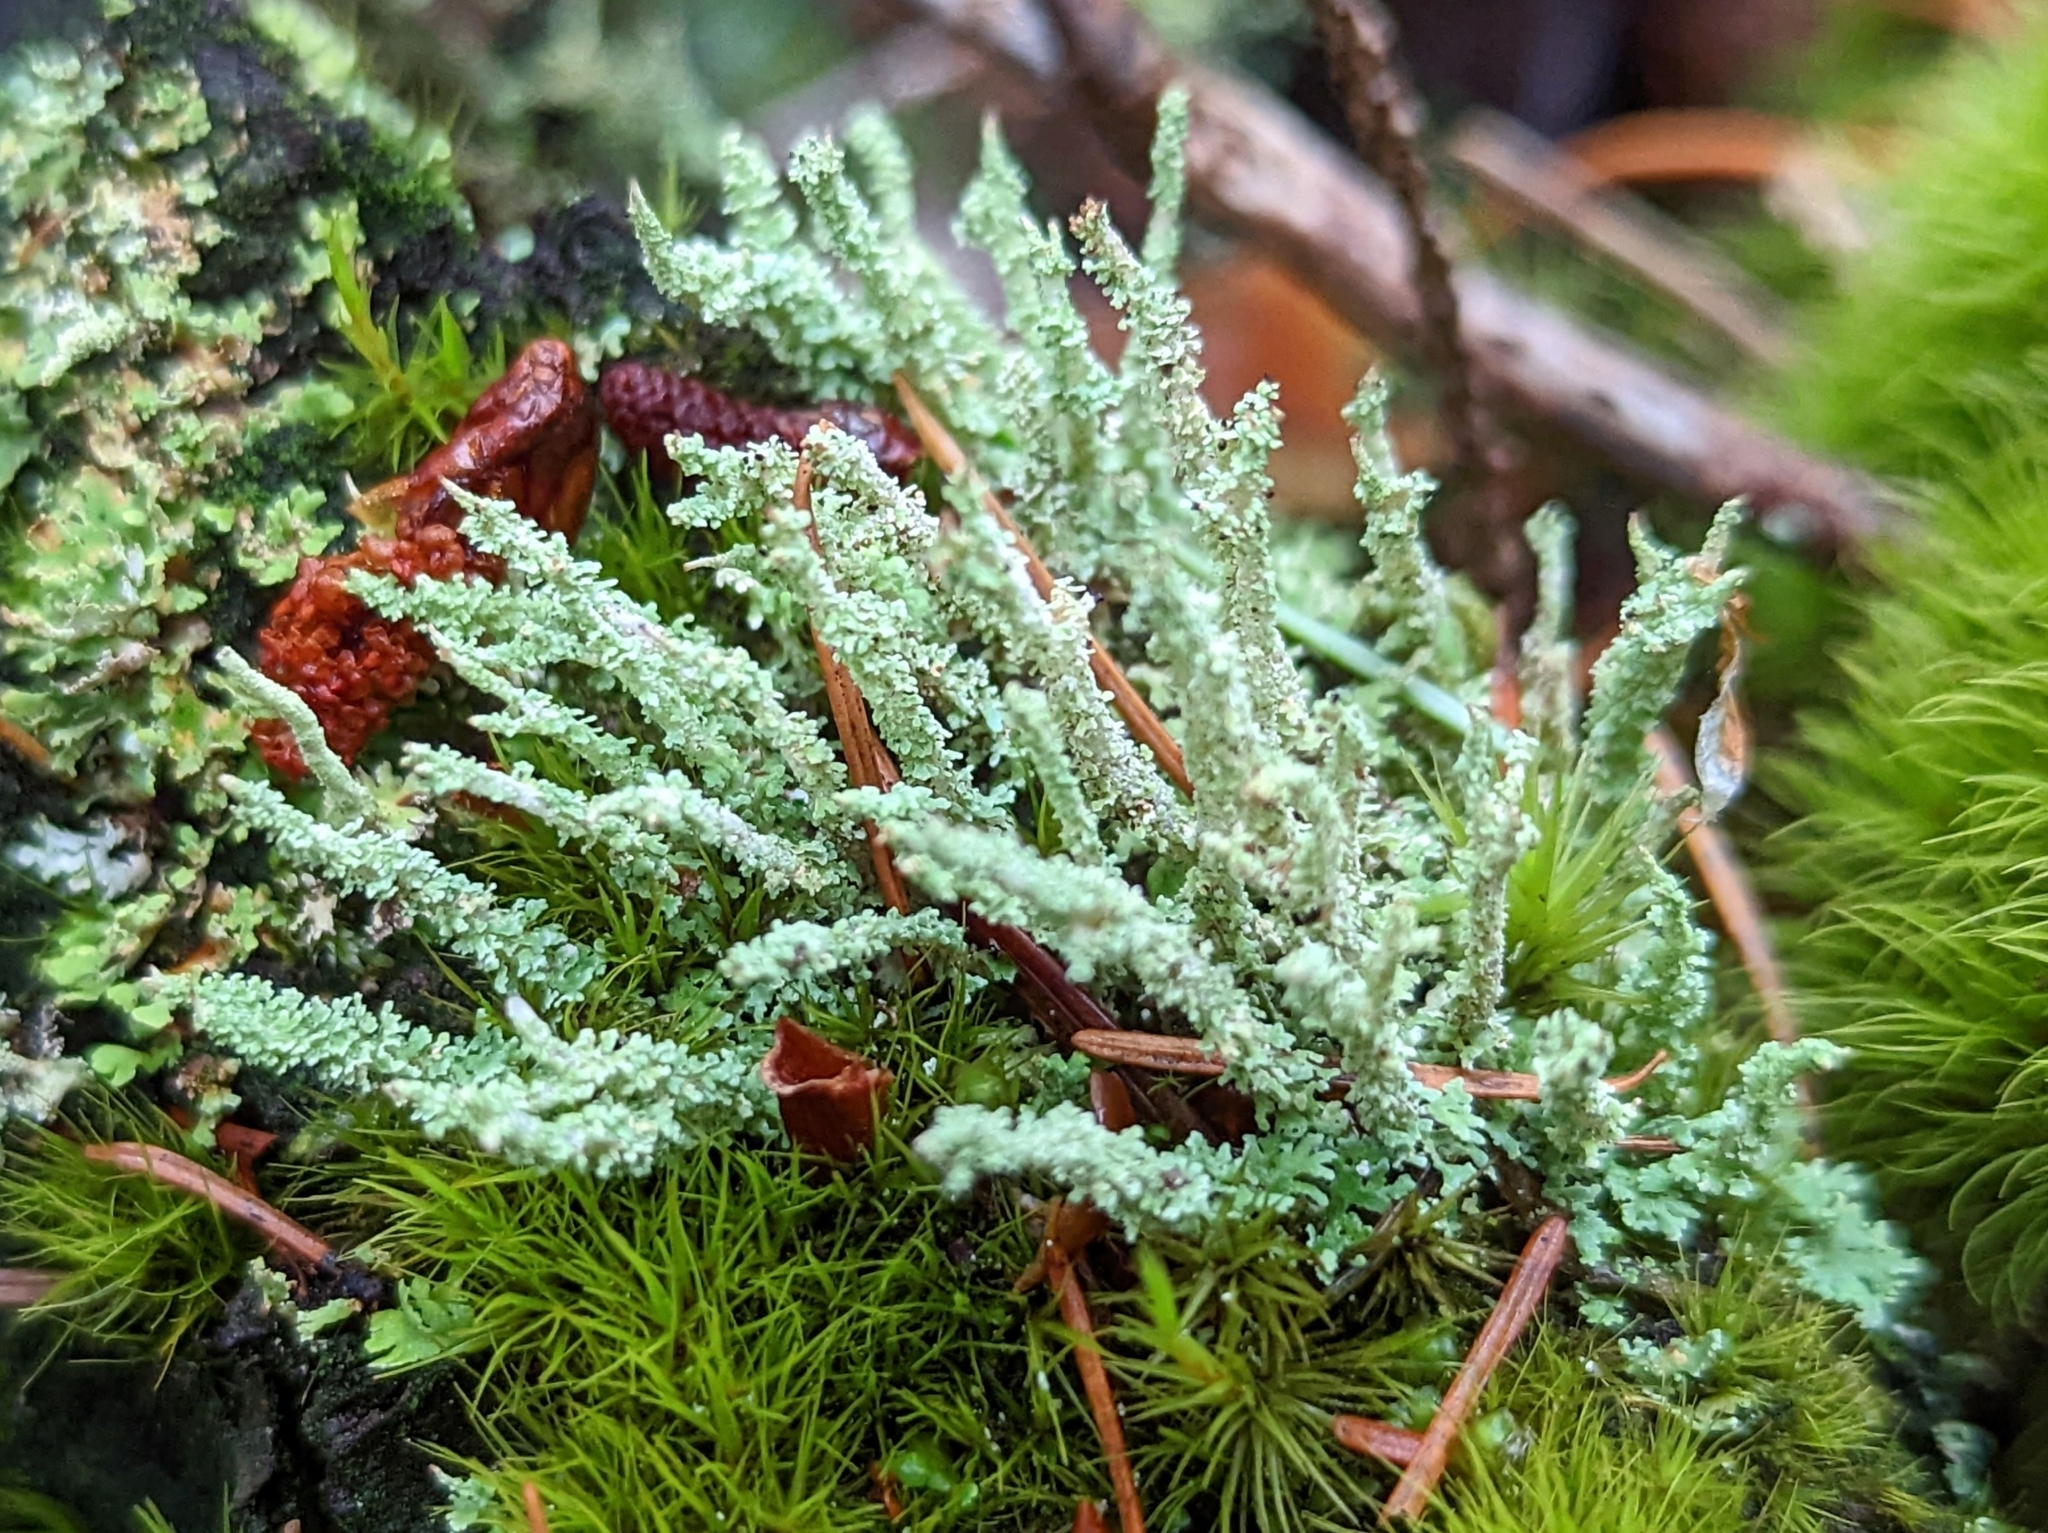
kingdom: Fungi
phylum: Ascomycota
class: Lecanoromycetes
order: Lecanorales
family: Cladoniaceae
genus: Cladonia
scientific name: Cladonia squamosa
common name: Dragon horn
